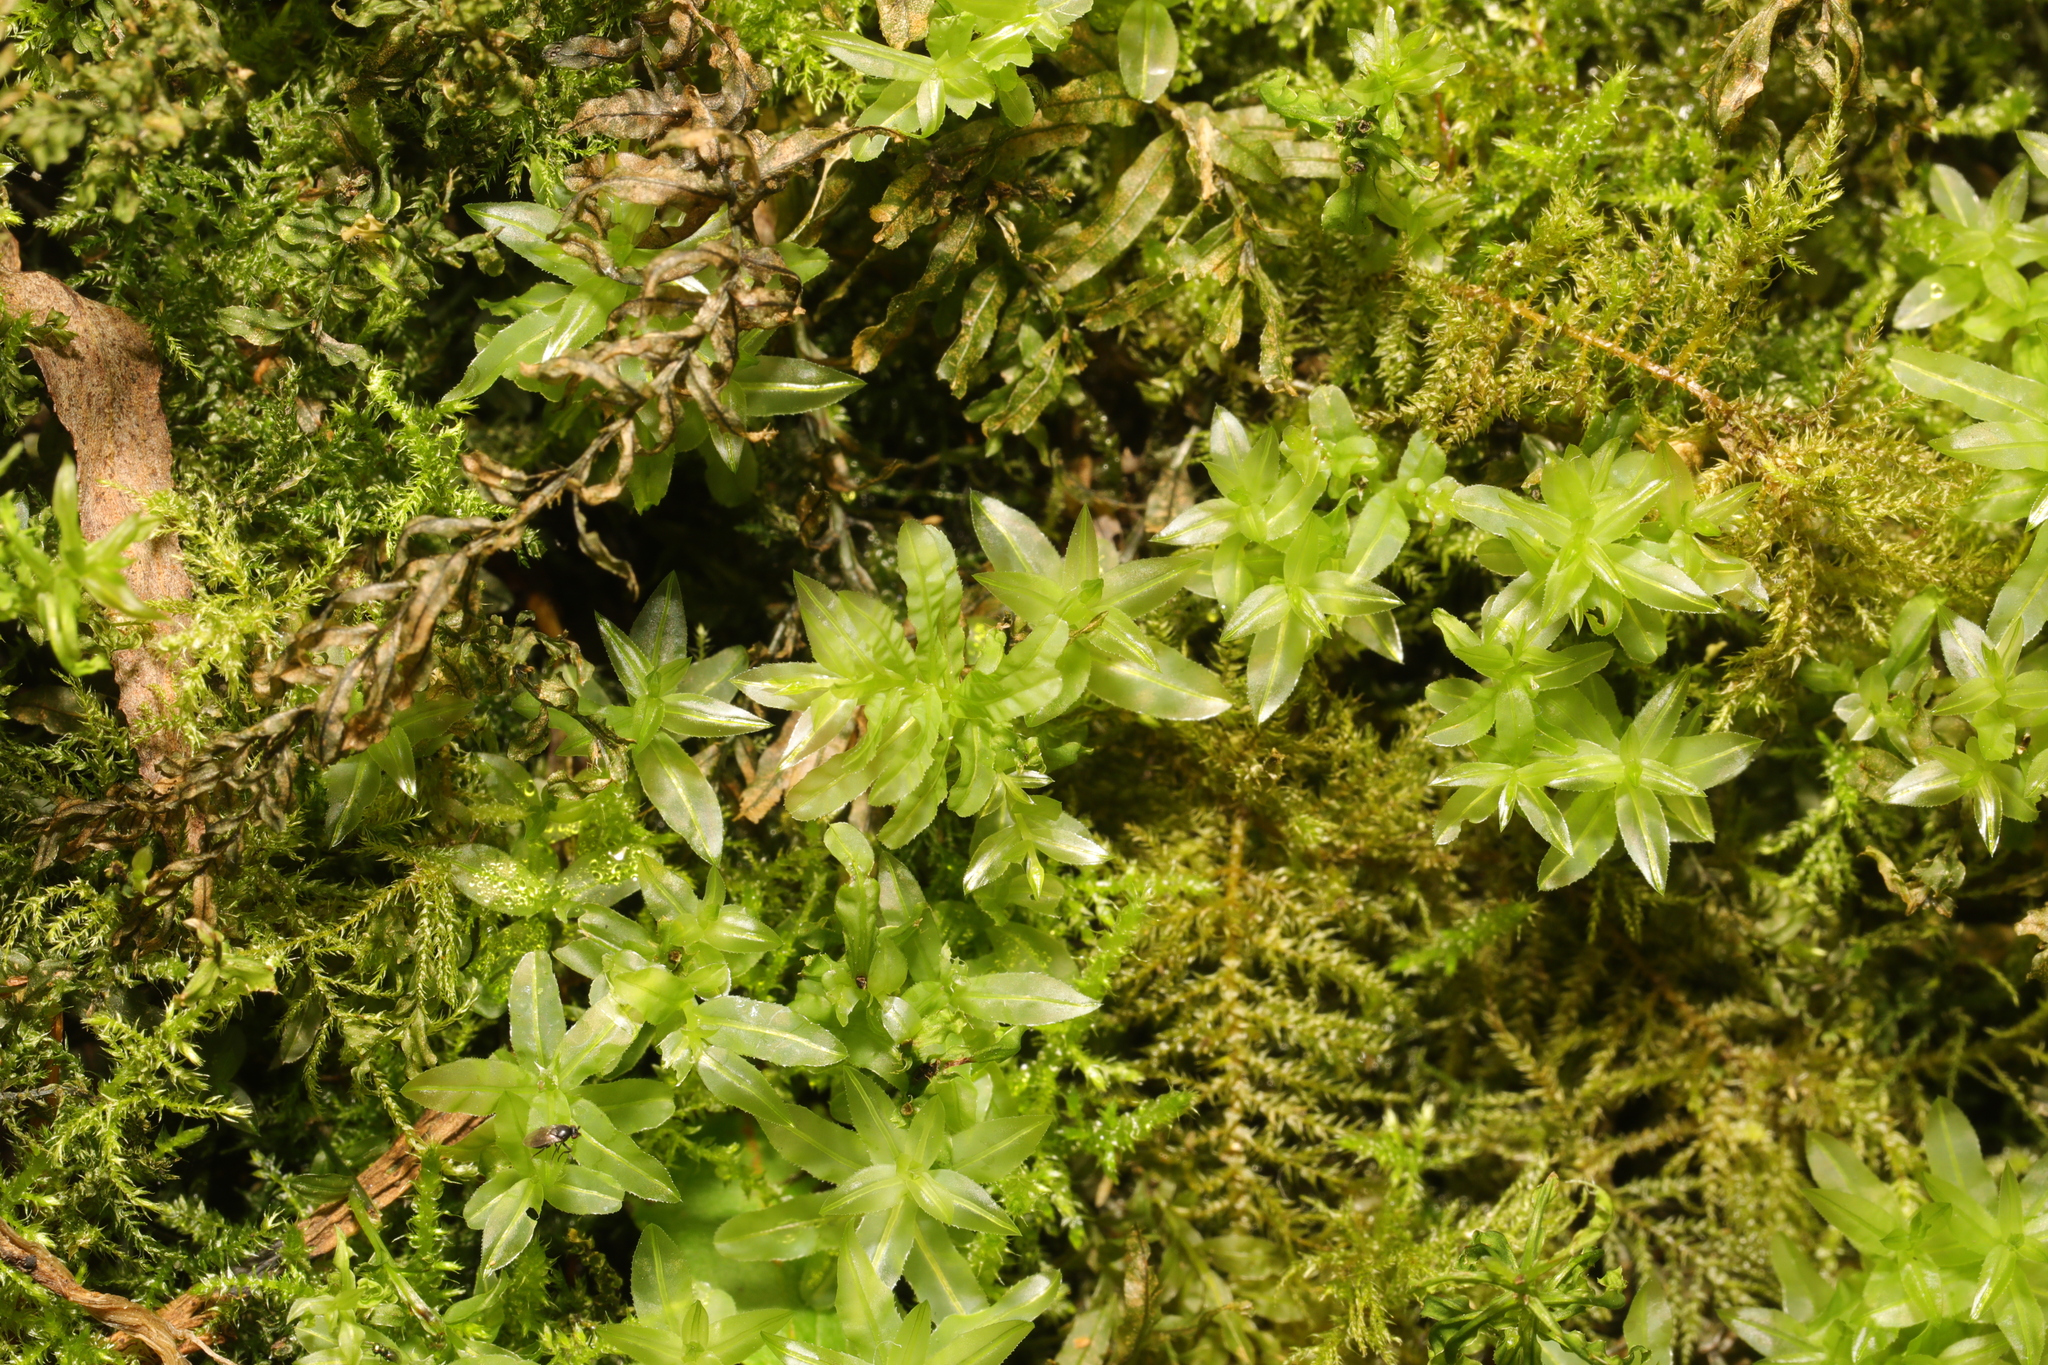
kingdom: Plantae
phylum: Bryophyta
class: Bryopsida
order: Bryales
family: Mniaceae
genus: Plagiomnium
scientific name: Plagiomnium undulatum
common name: Hart's-tongue thyme-moss
